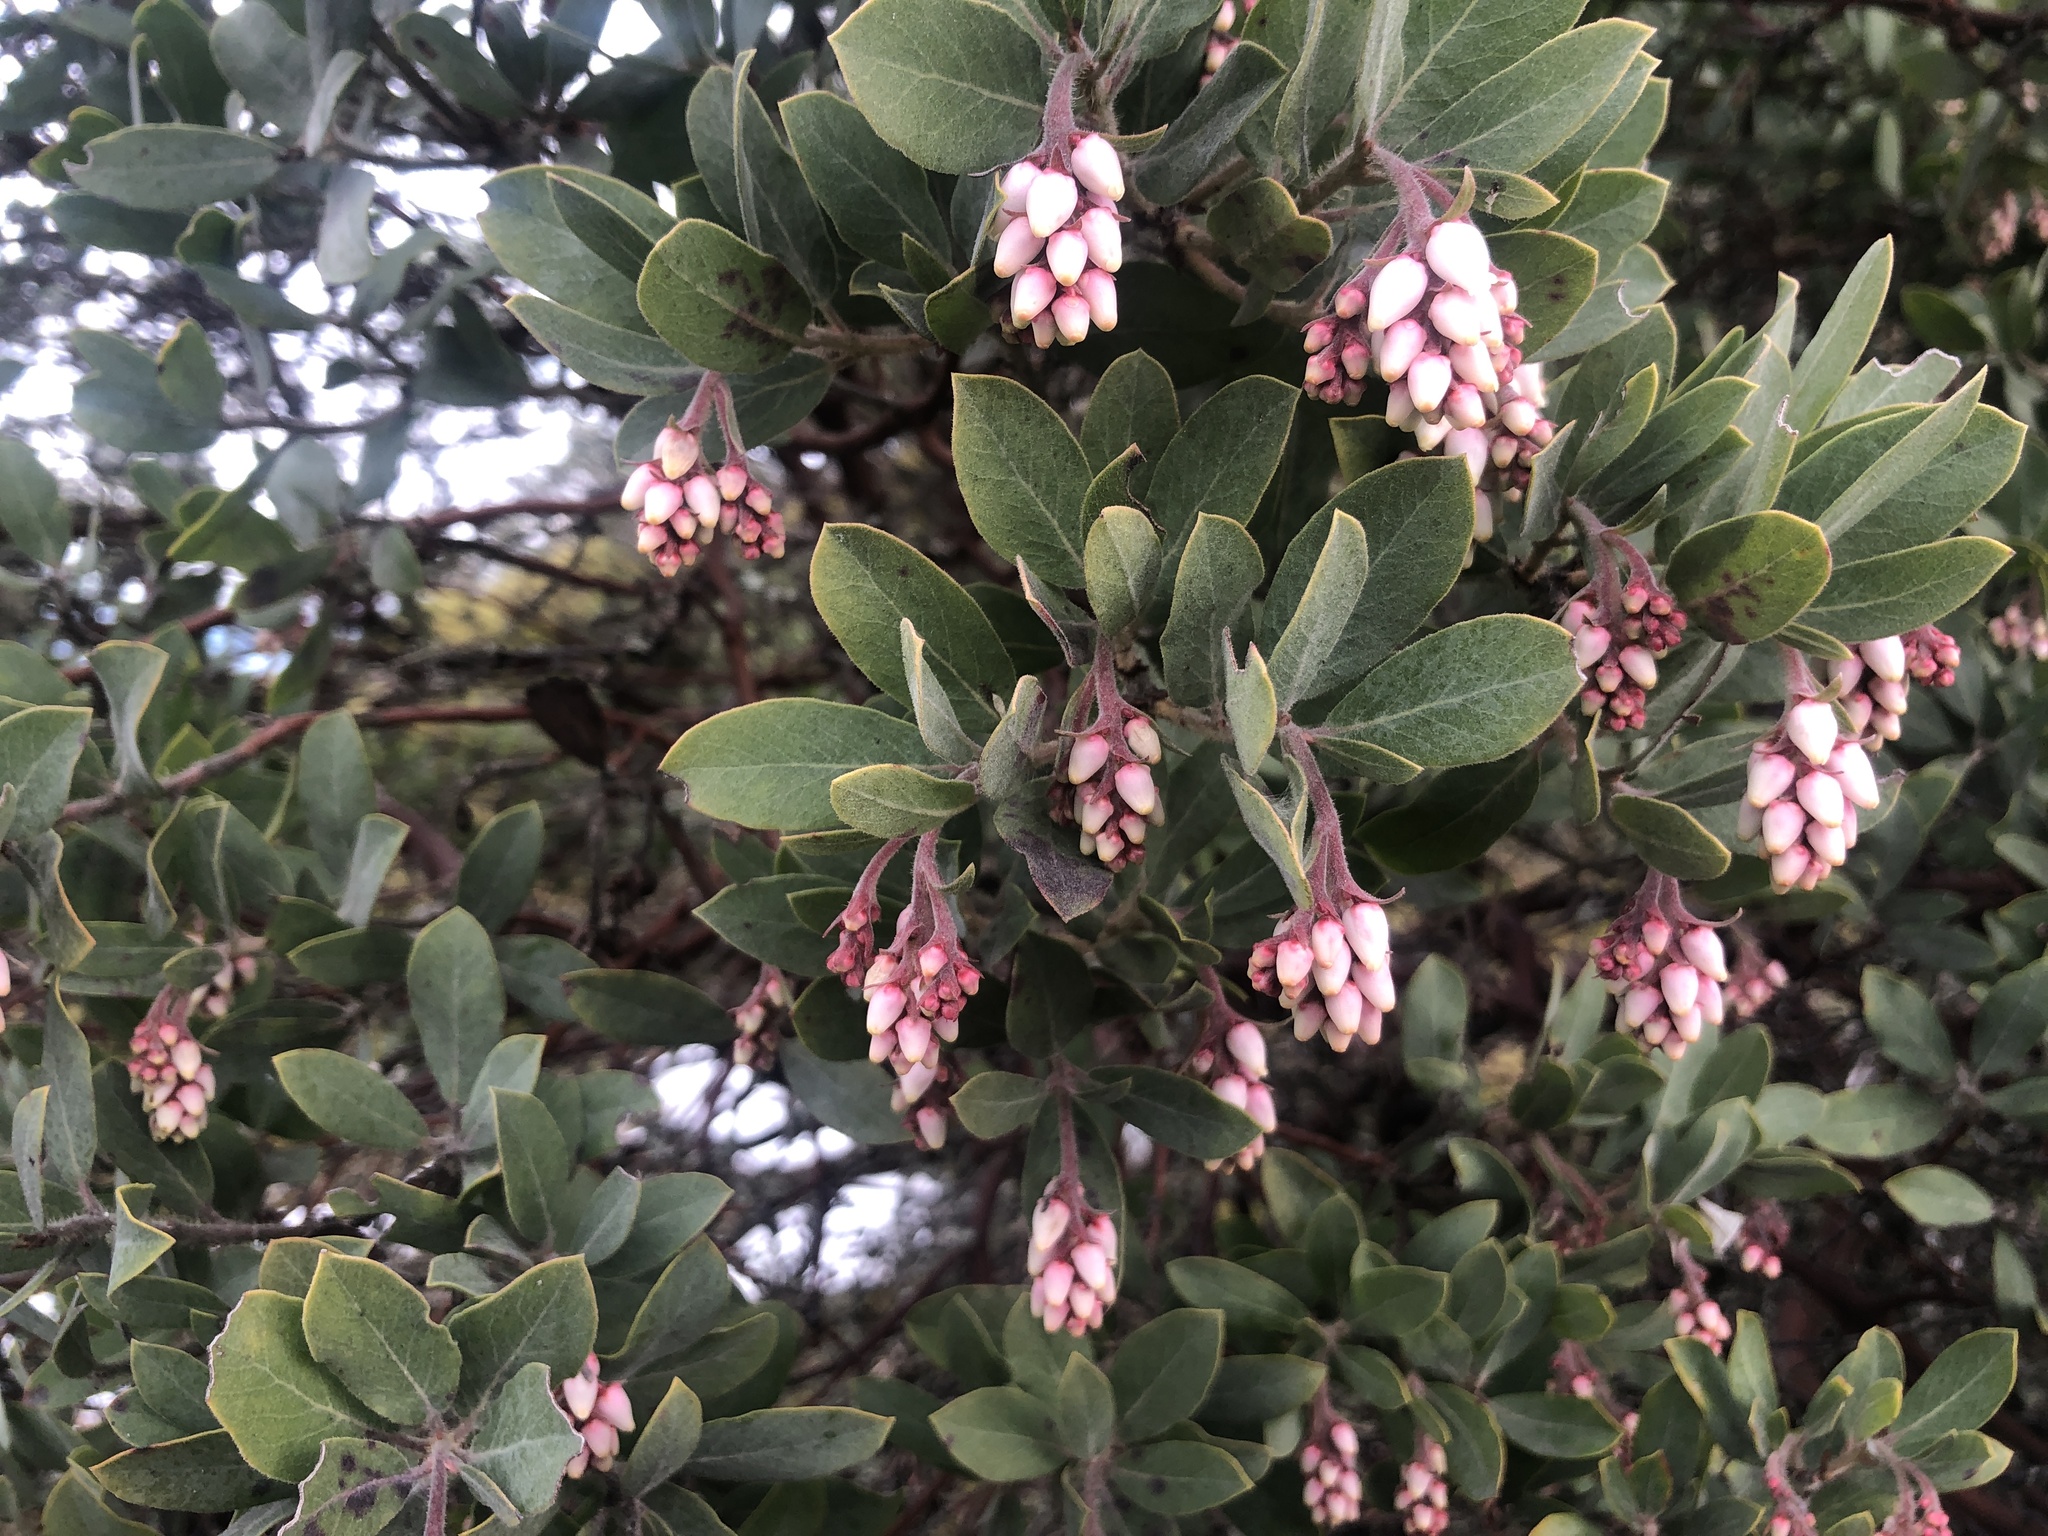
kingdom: Plantae
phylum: Tracheophyta
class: Magnoliopsida
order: Ericales
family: Ericaceae
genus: Arctostaphylos
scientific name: Arctostaphylos columbiana
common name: Bristly bearberry
